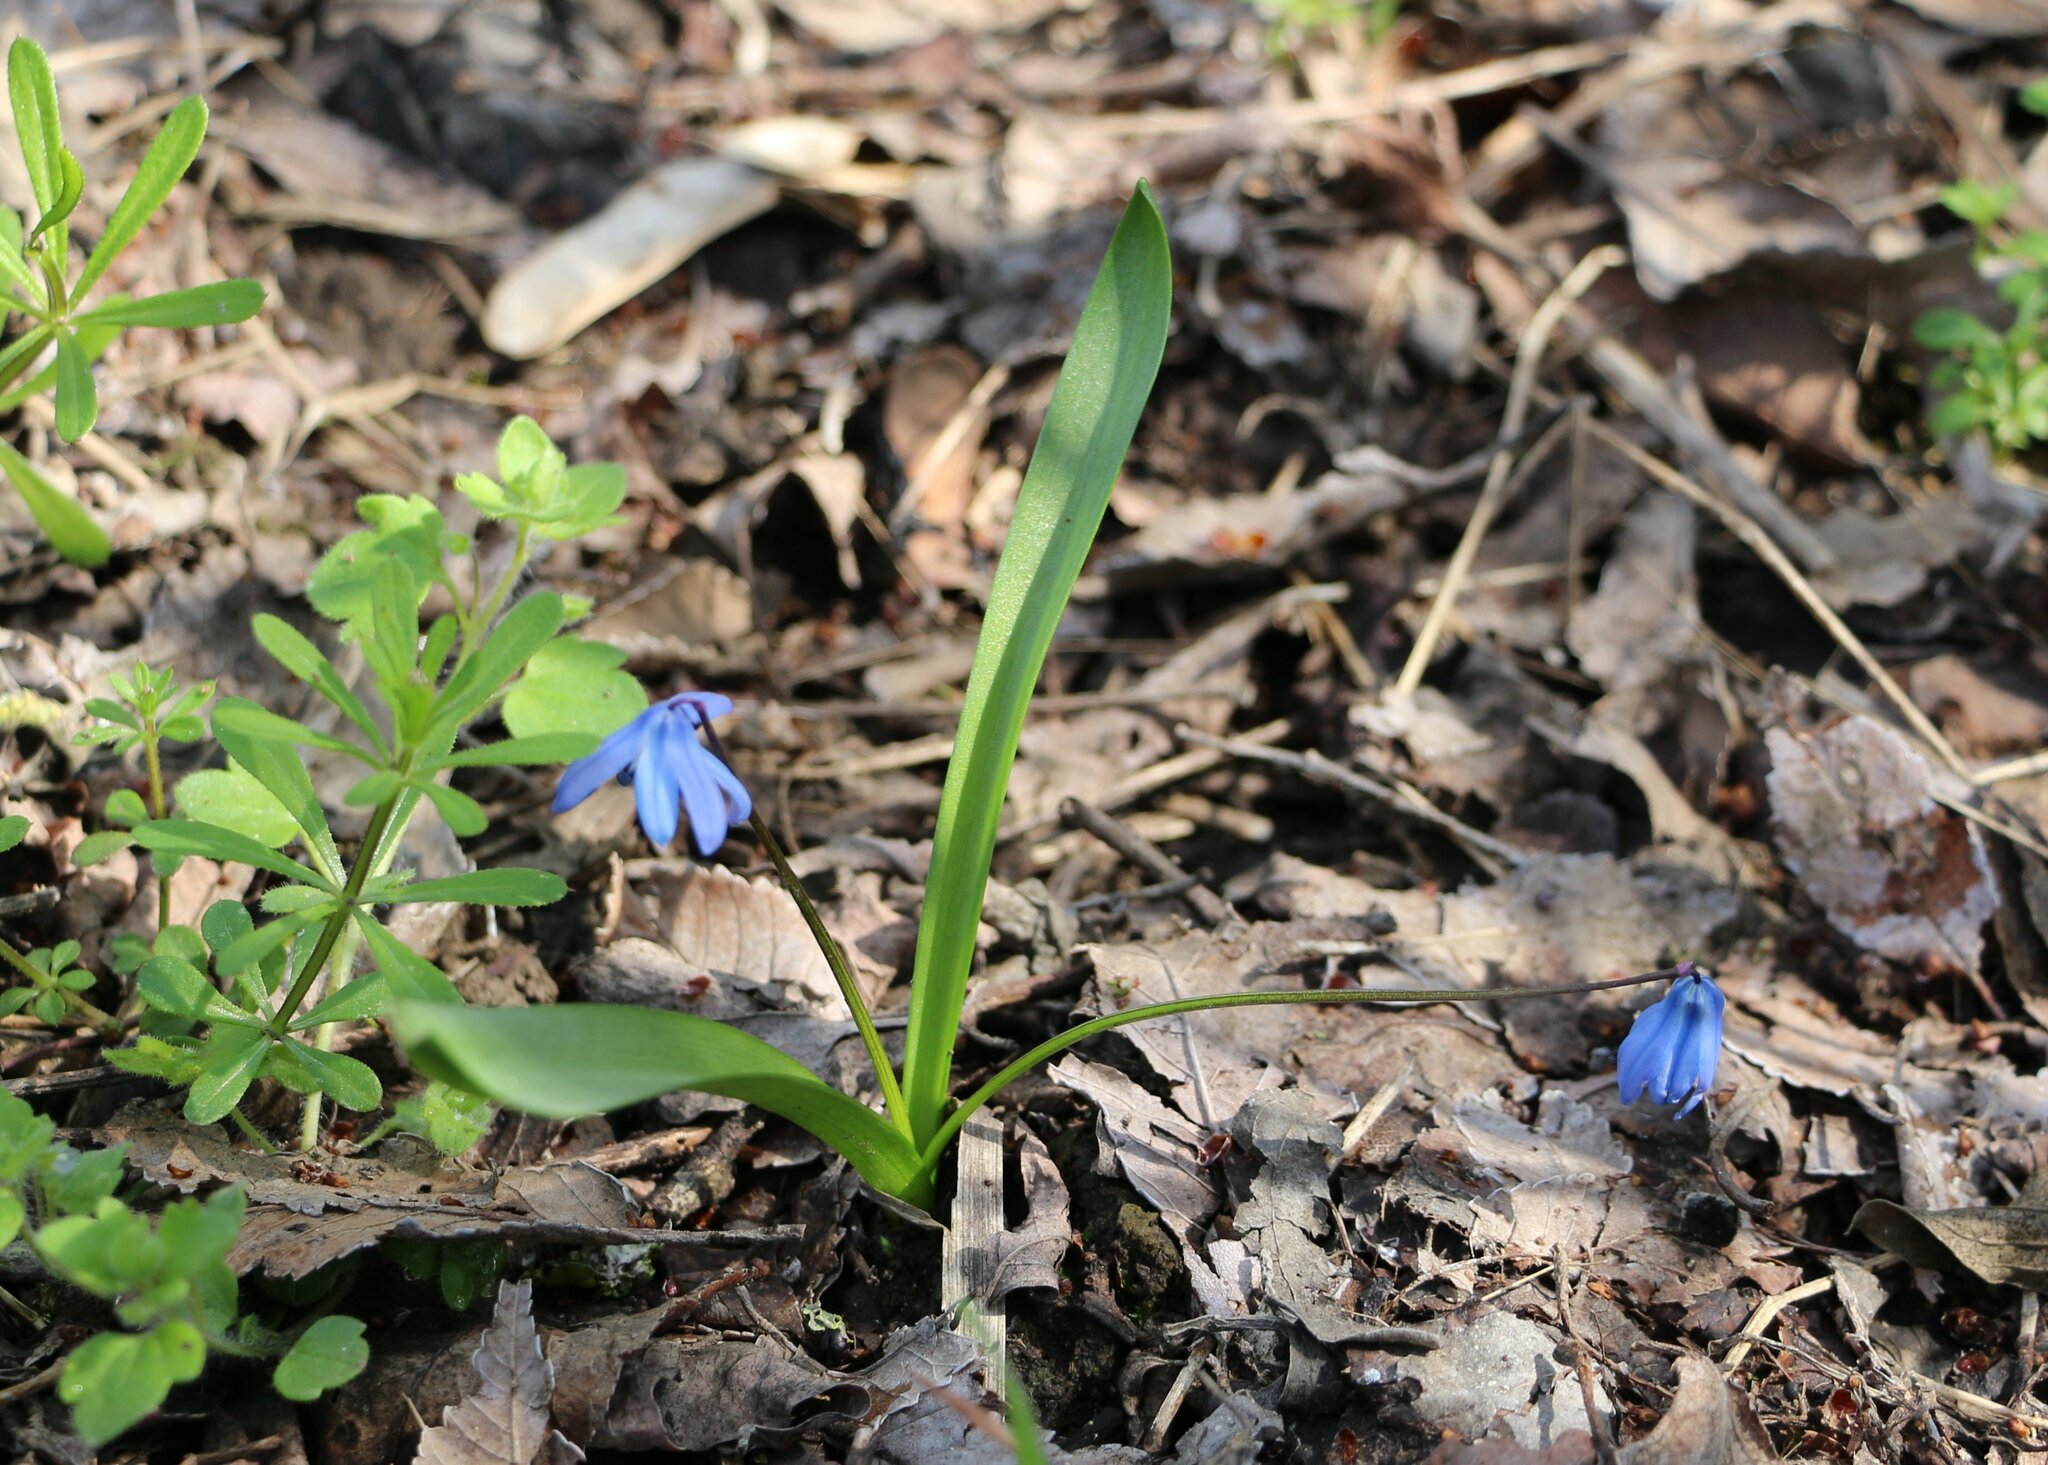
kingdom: Plantae
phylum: Tracheophyta
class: Liliopsida
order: Asparagales
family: Asparagaceae
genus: Scilla
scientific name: Scilla siberica
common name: Siberian squill
